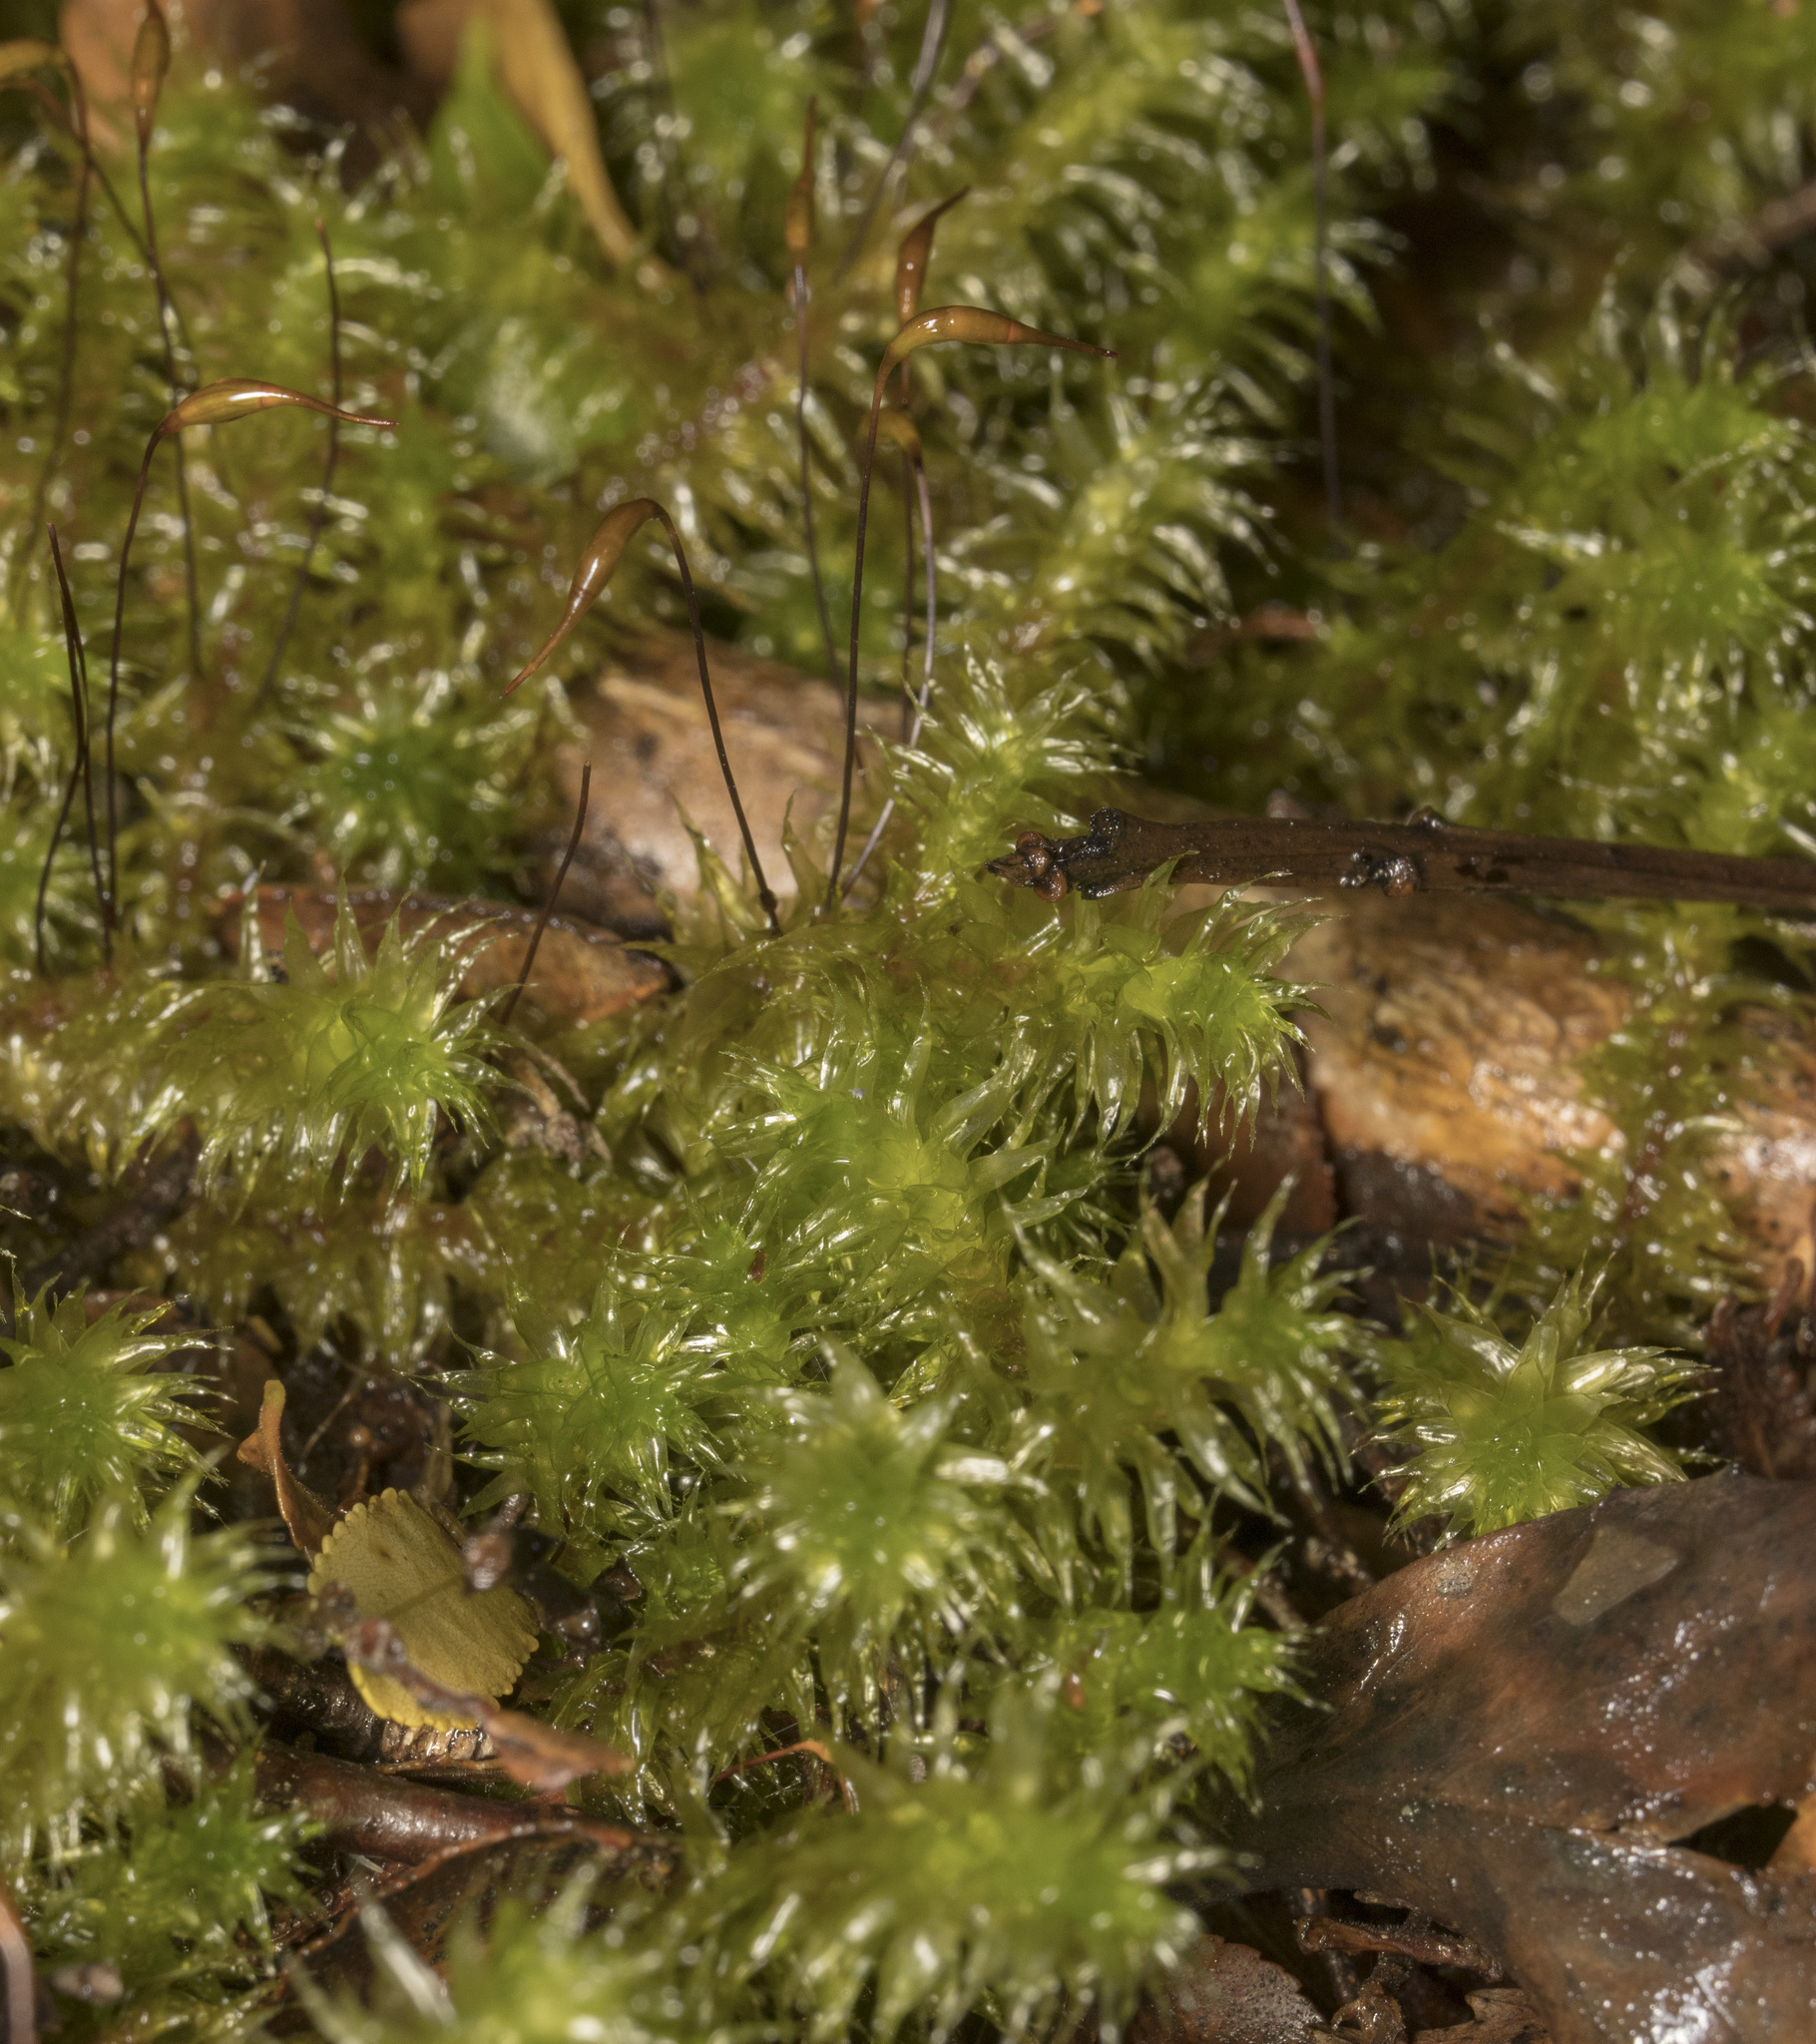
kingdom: Plantae
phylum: Bryophyta
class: Bryopsida
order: Ptychomniales
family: Ptychomniaceae
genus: Ptychomnion
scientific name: Ptychomnion cygnisetum
